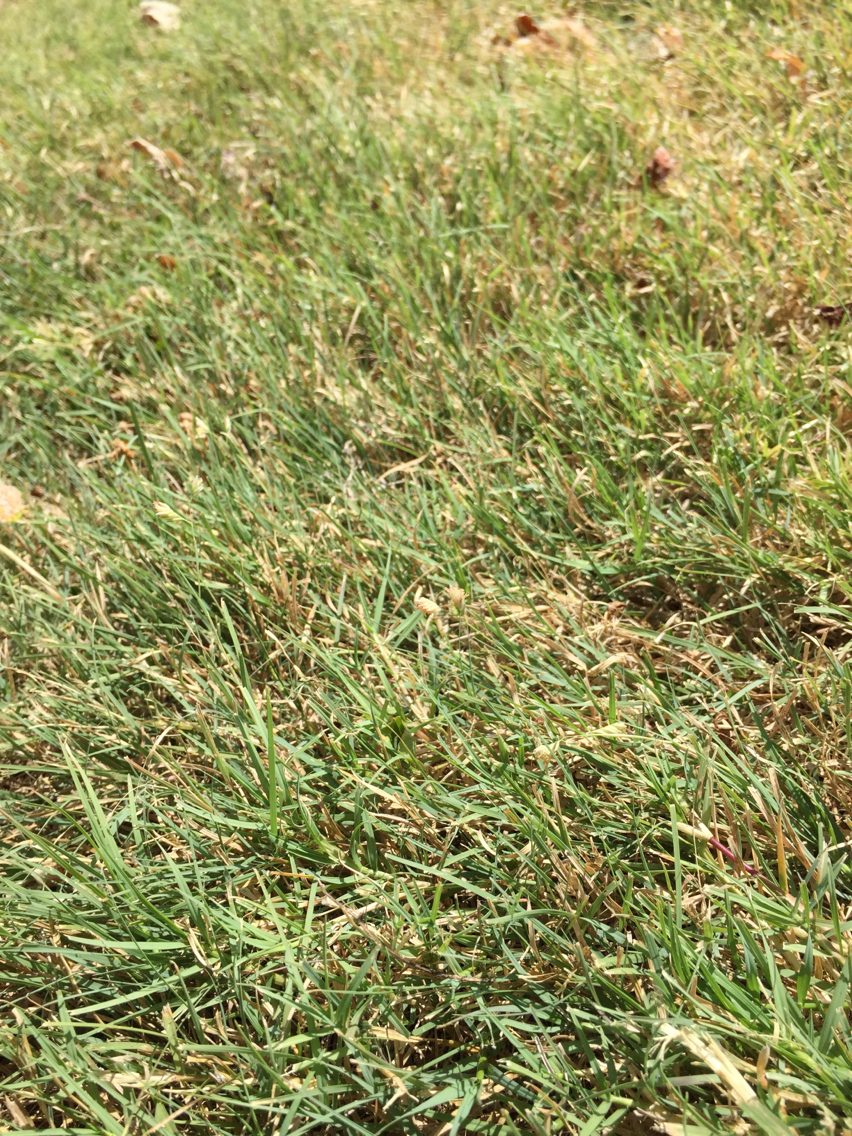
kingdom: Plantae
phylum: Tracheophyta
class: Liliopsida
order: Poales
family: Poaceae
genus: Bouteloua
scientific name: Bouteloua dactyloides
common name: Buffalo grass
